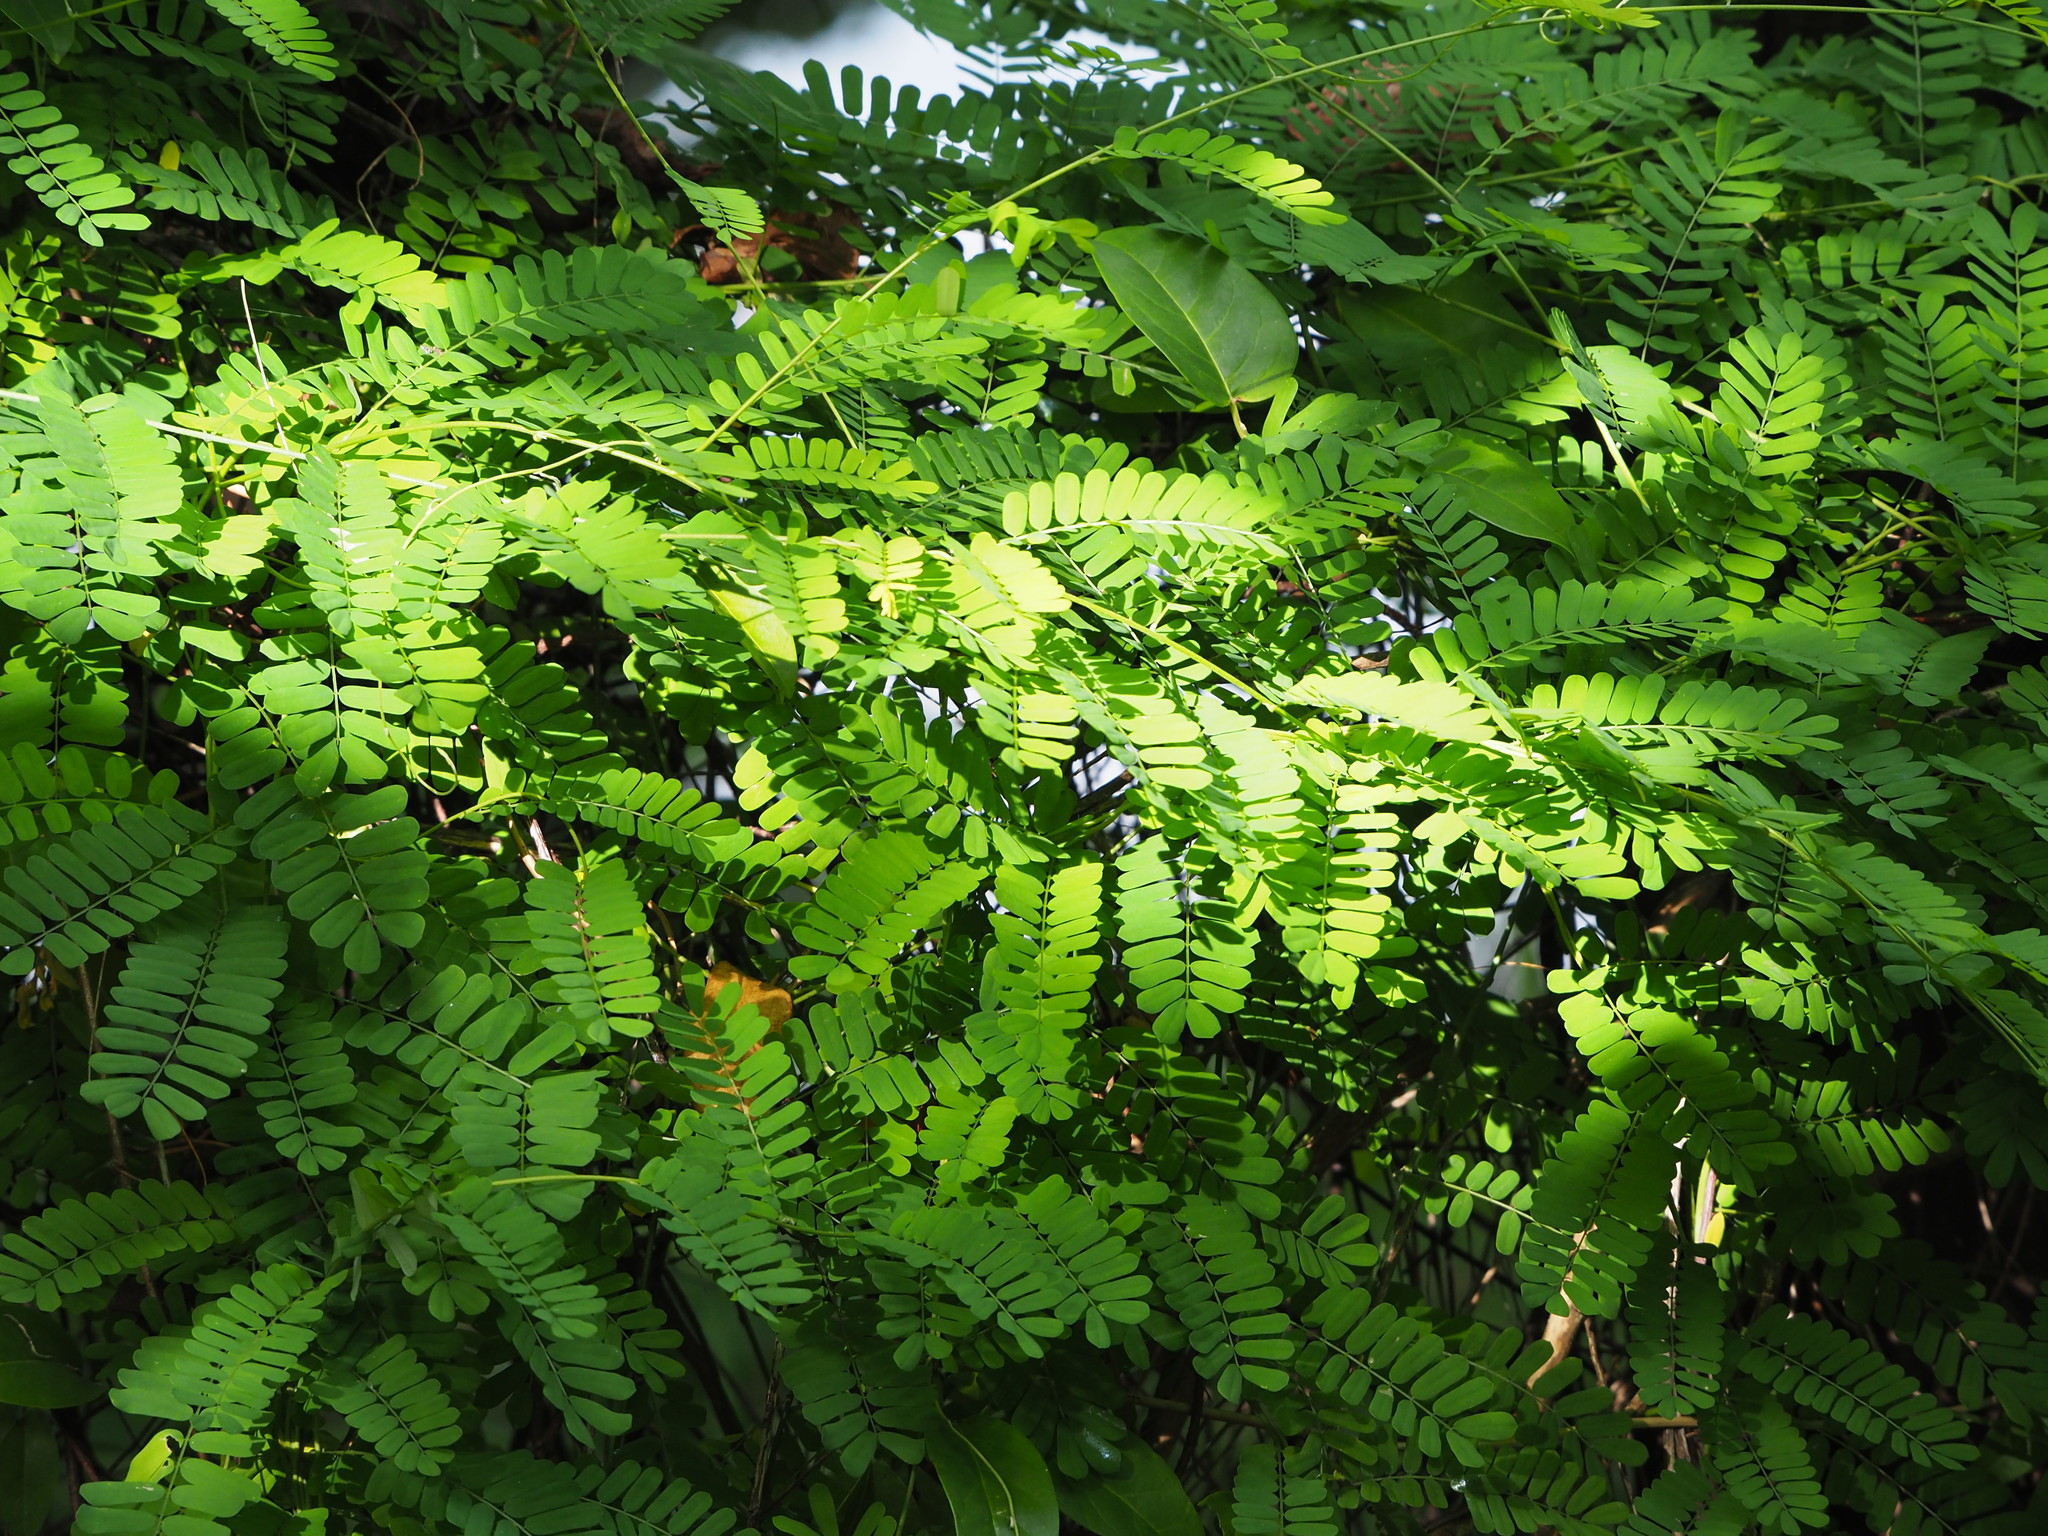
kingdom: Plantae
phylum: Tracheophyta
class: Magnoliopsida
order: Fabales
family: Fabaceae
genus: Abrus
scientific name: Abrus precatorius
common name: Rosarypea
